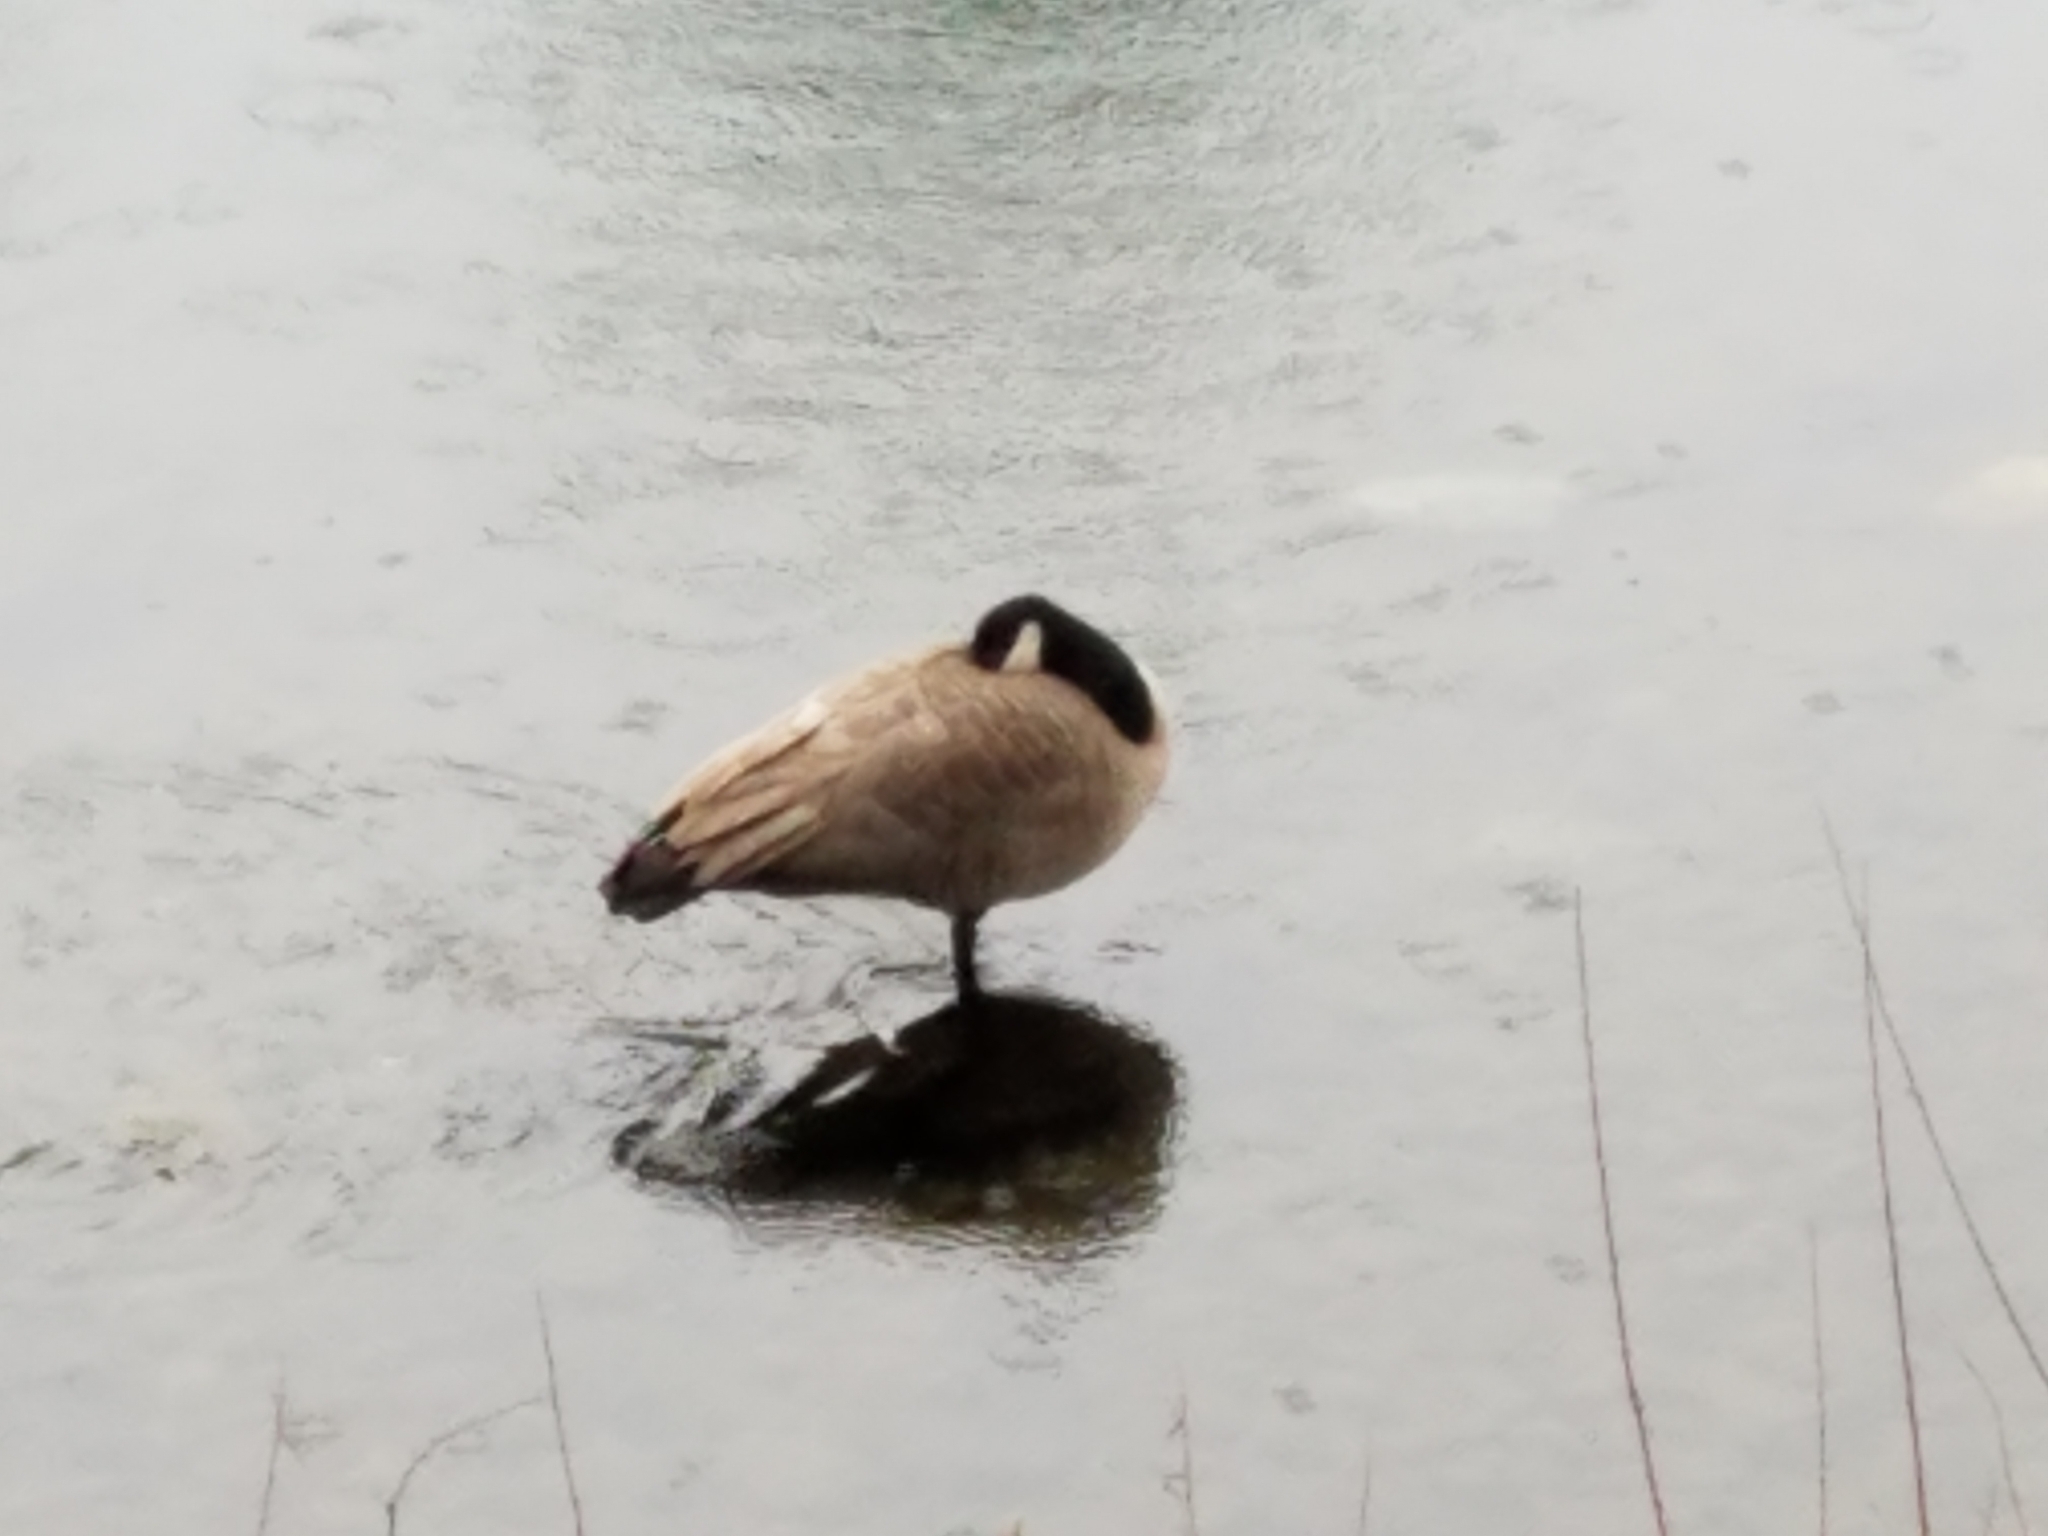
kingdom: Animalia
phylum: Chordata
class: Aves
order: Anseriformes
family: Anatidae
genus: Branta
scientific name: Branta canadensis
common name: Canada goose
